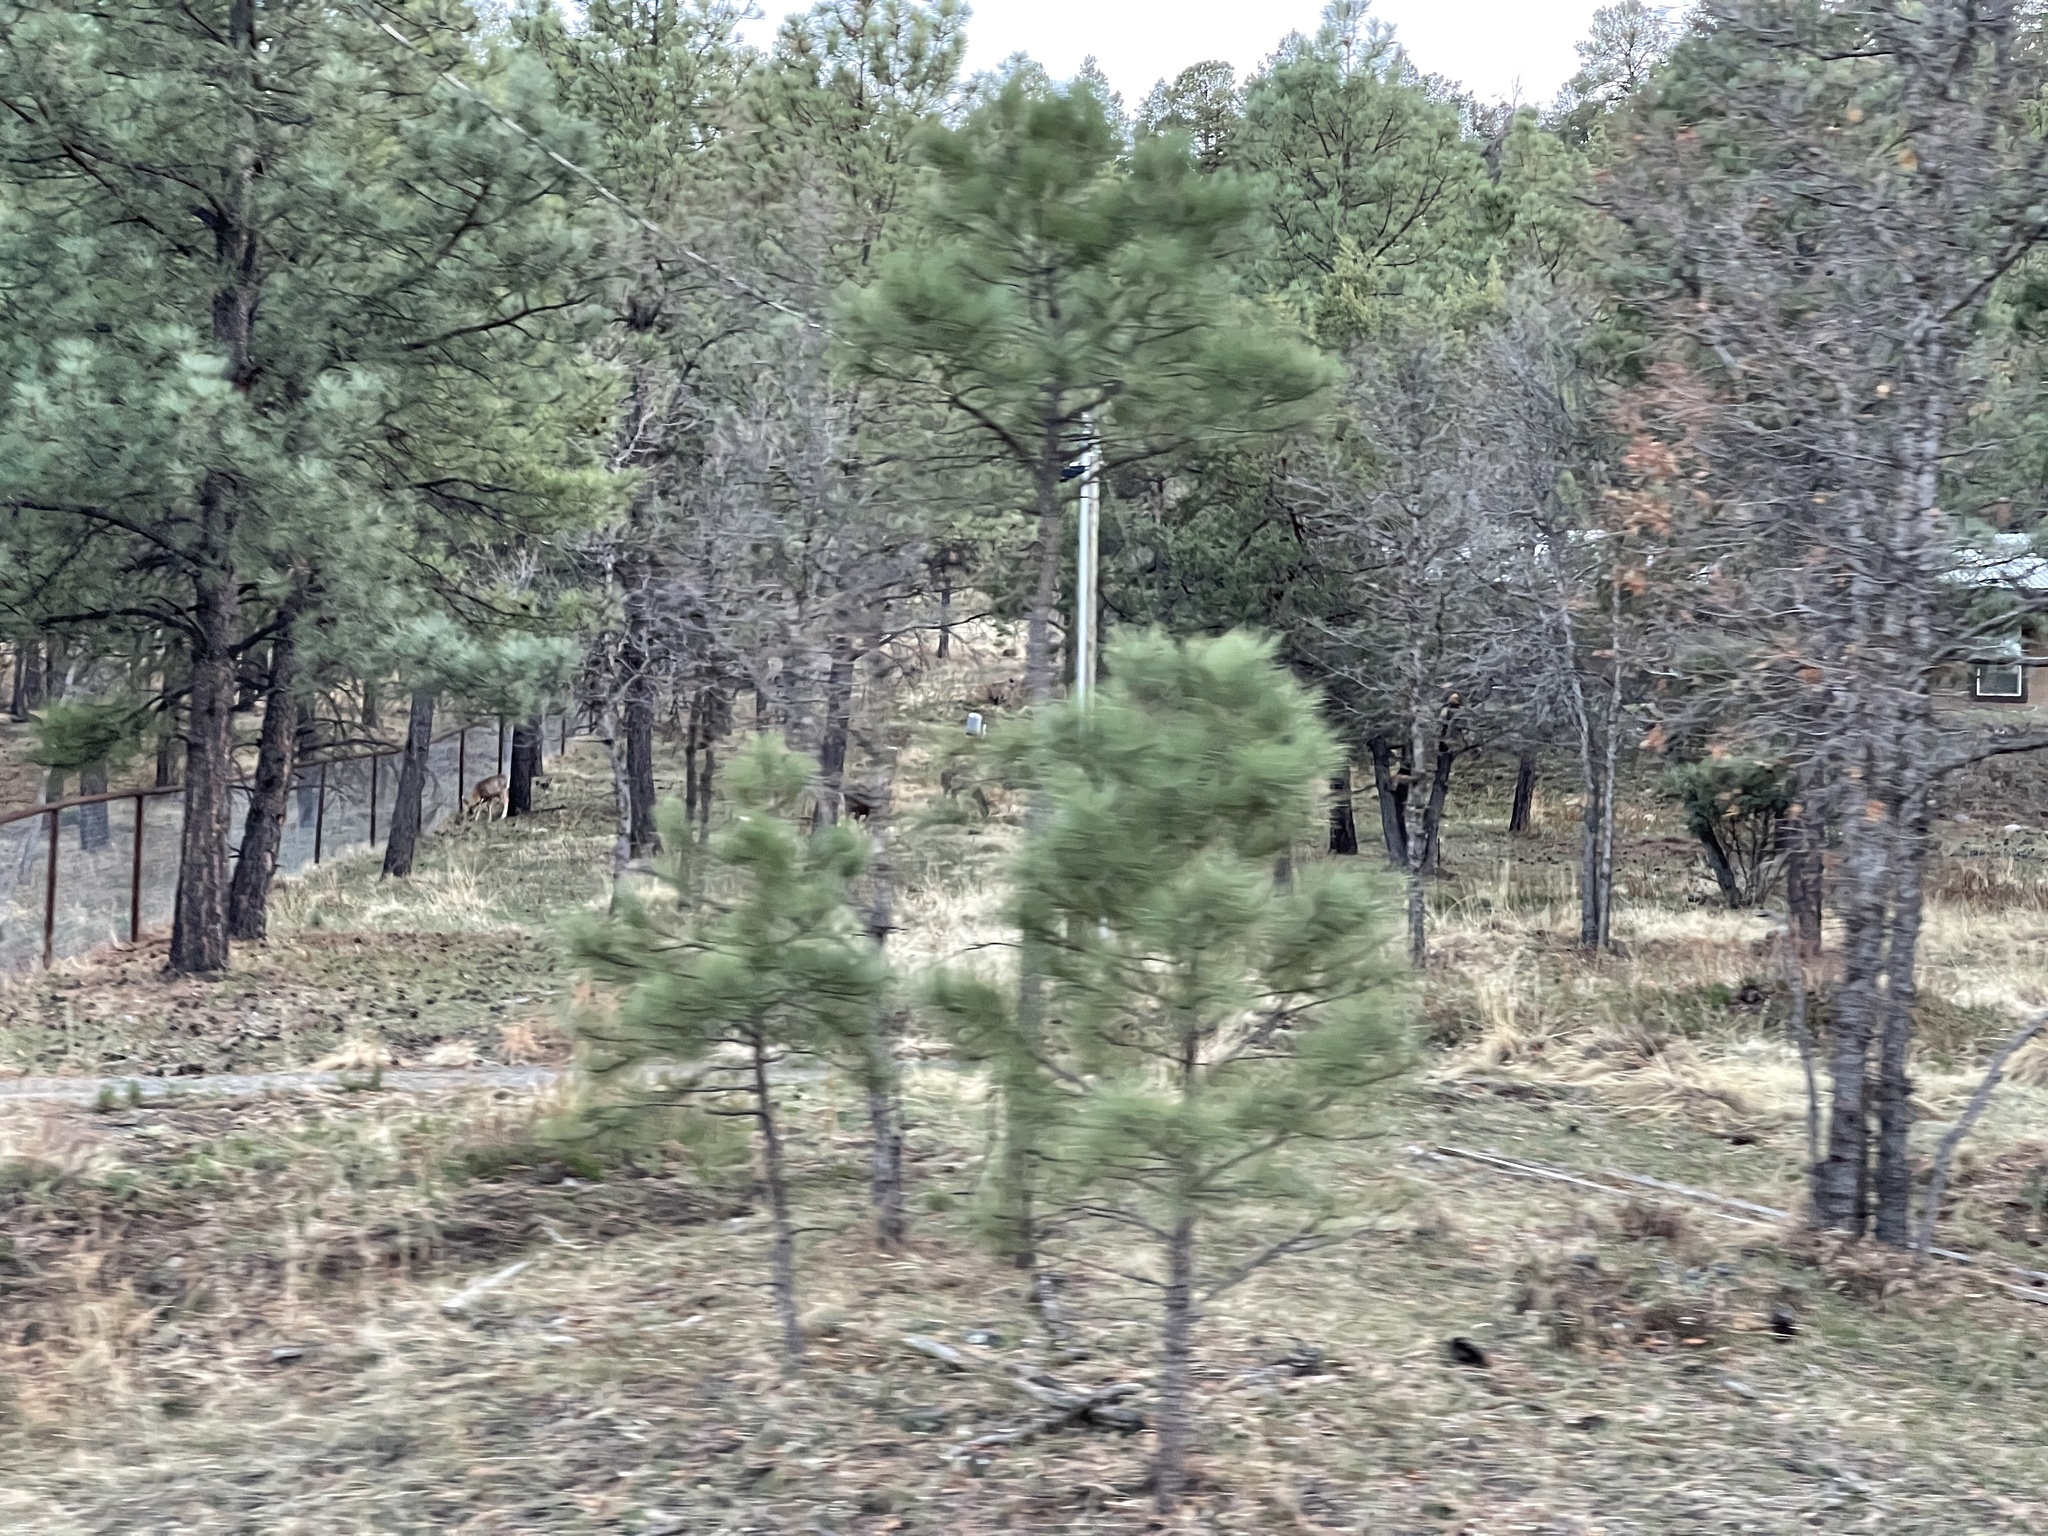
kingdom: Animalia
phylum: Chordata
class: Mammalia
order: Artiodactyla
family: Cervidae
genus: Odocoileus
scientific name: Odocoileus hemionus
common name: Mule deer
